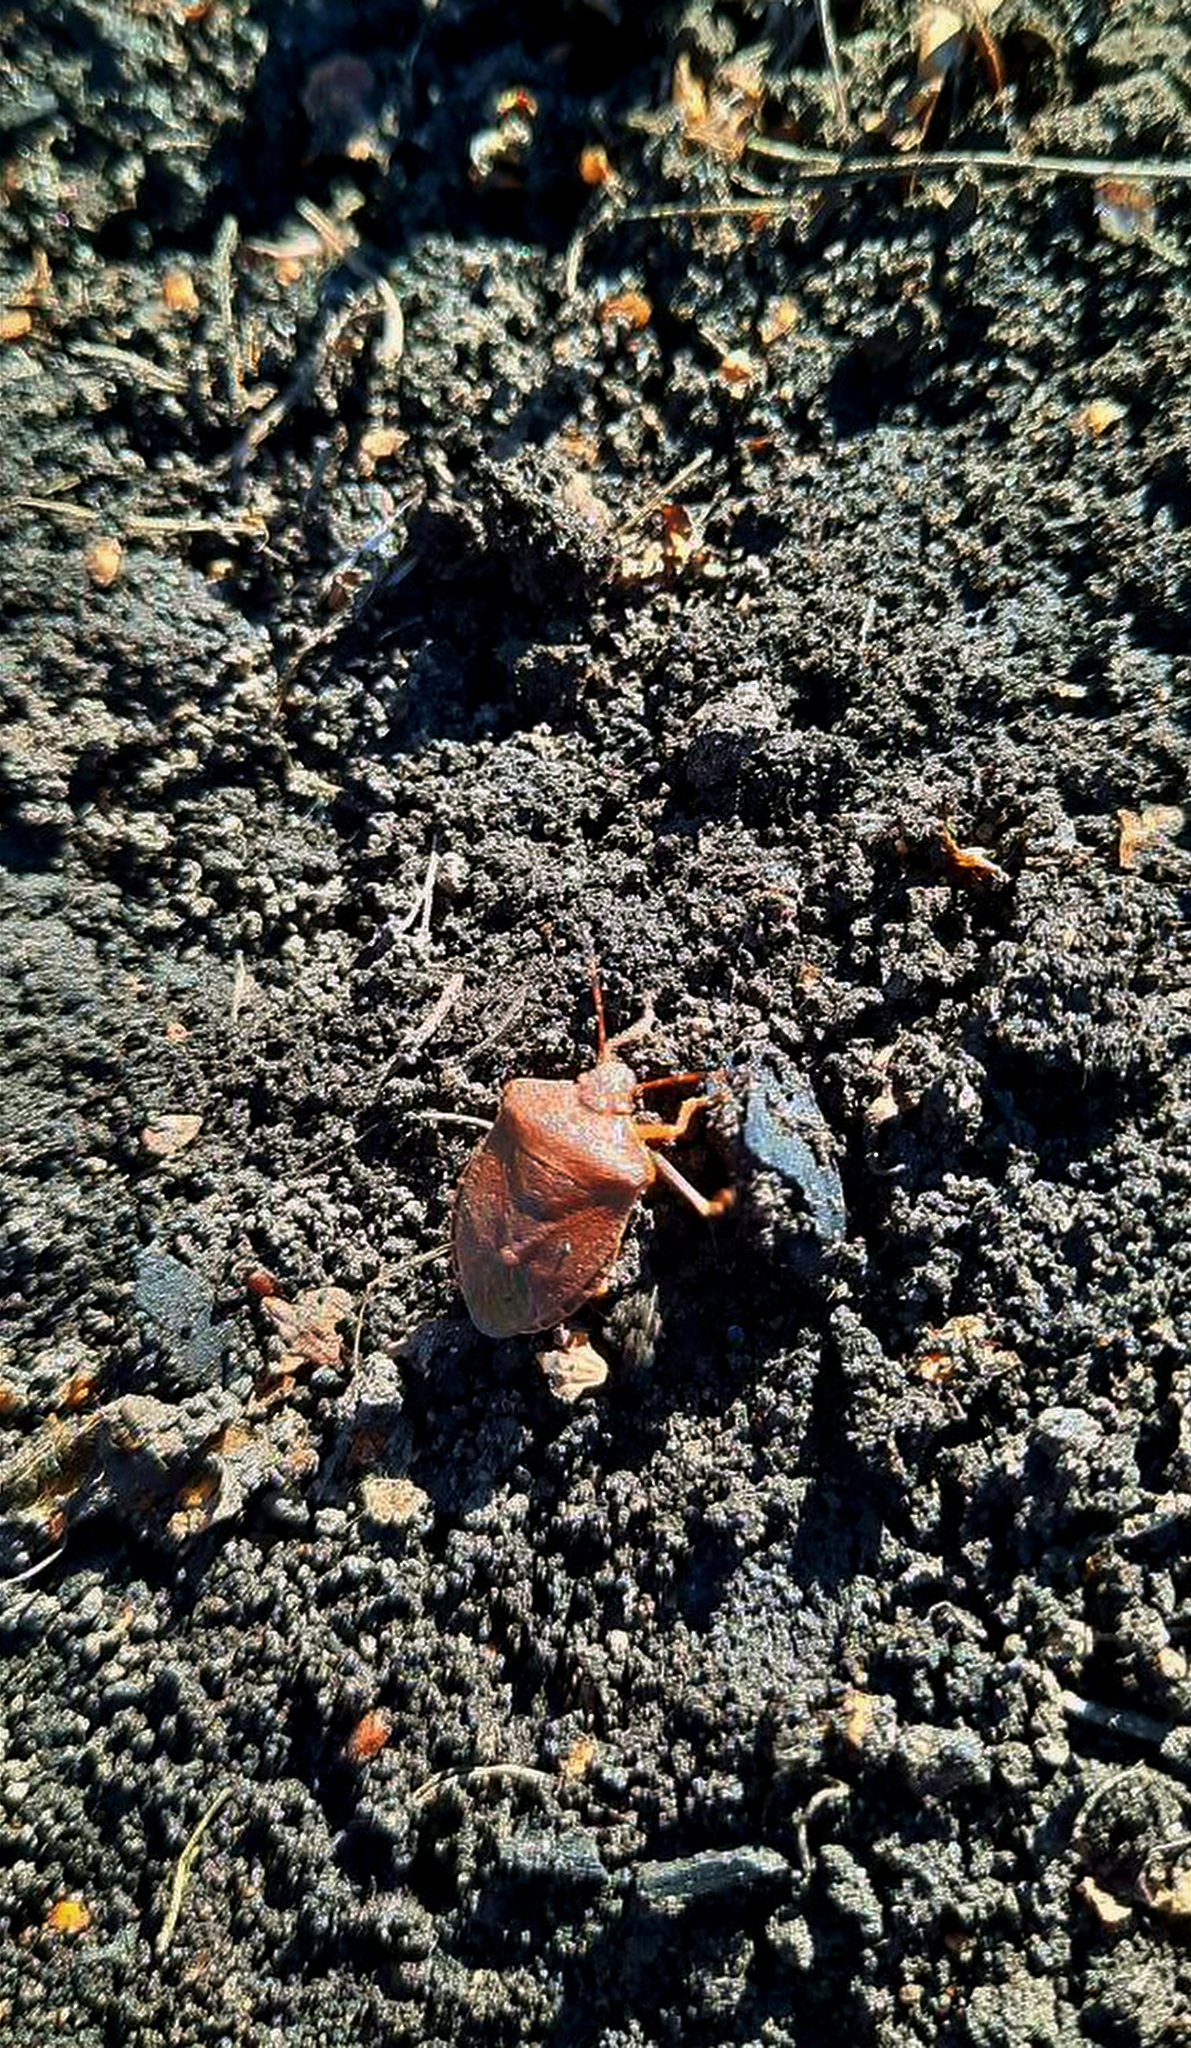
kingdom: Animalia
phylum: Arthropoda
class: Insecta
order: Hemiptera
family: Pentatomidae
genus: Palomena
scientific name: Palomena prasina
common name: Green shieldbug
